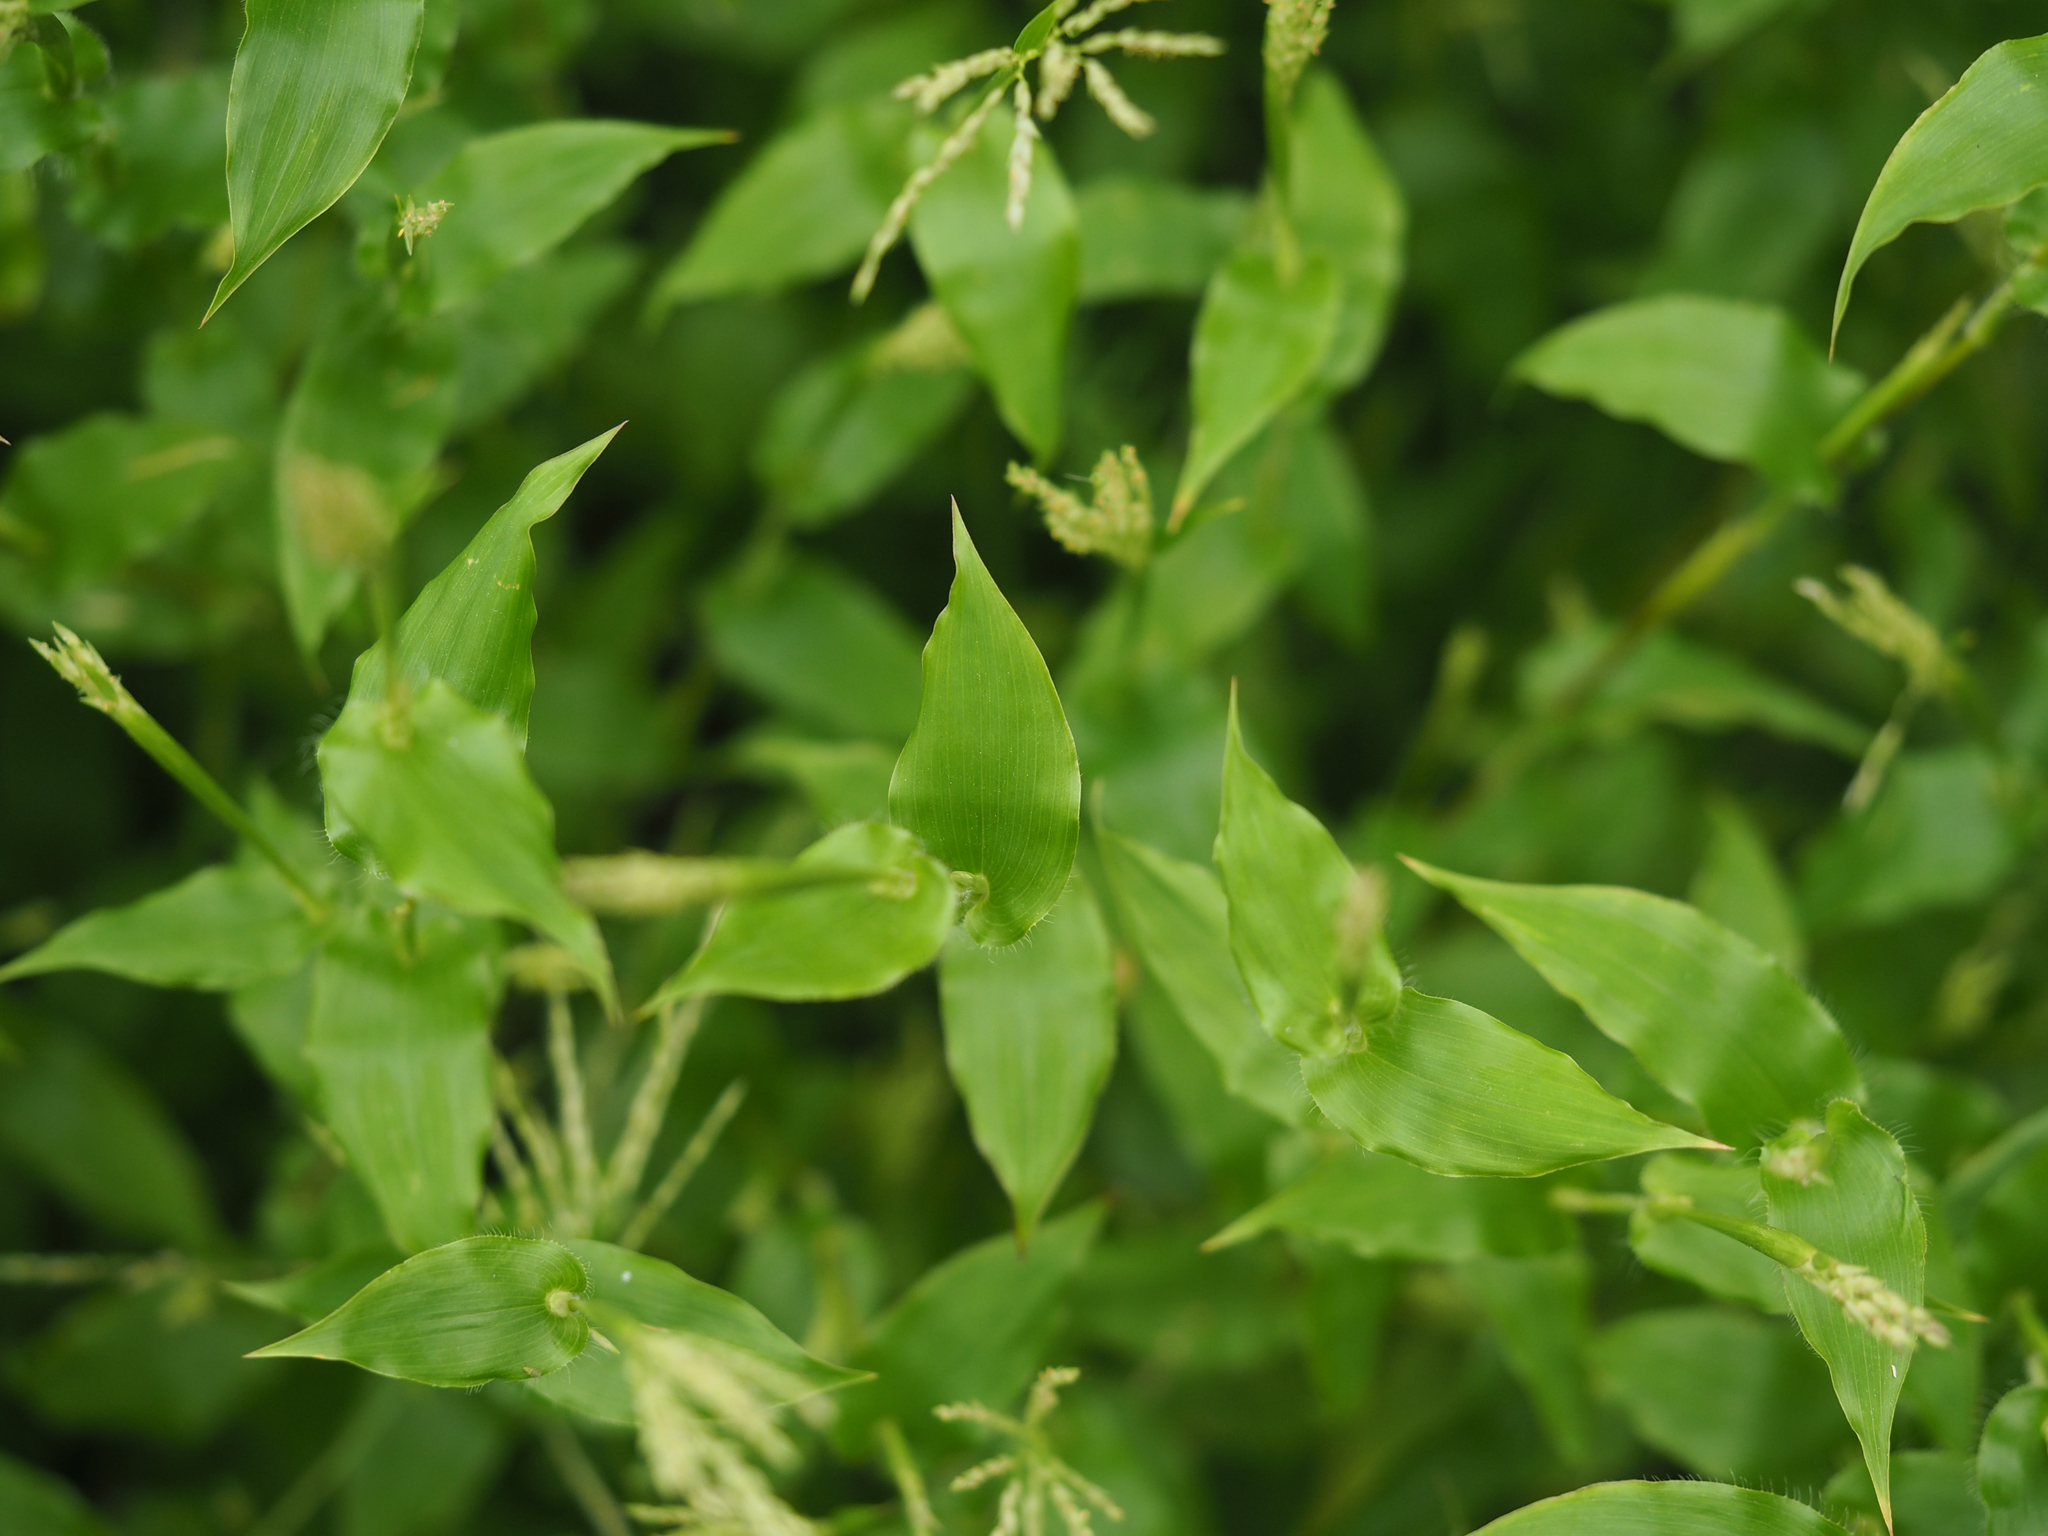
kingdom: Plantae
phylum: Tracheophyta
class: Liliopsida
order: Poales
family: Poaceae
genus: Arthraxon
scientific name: Arthraxon hispidus
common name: Small carpgrass
